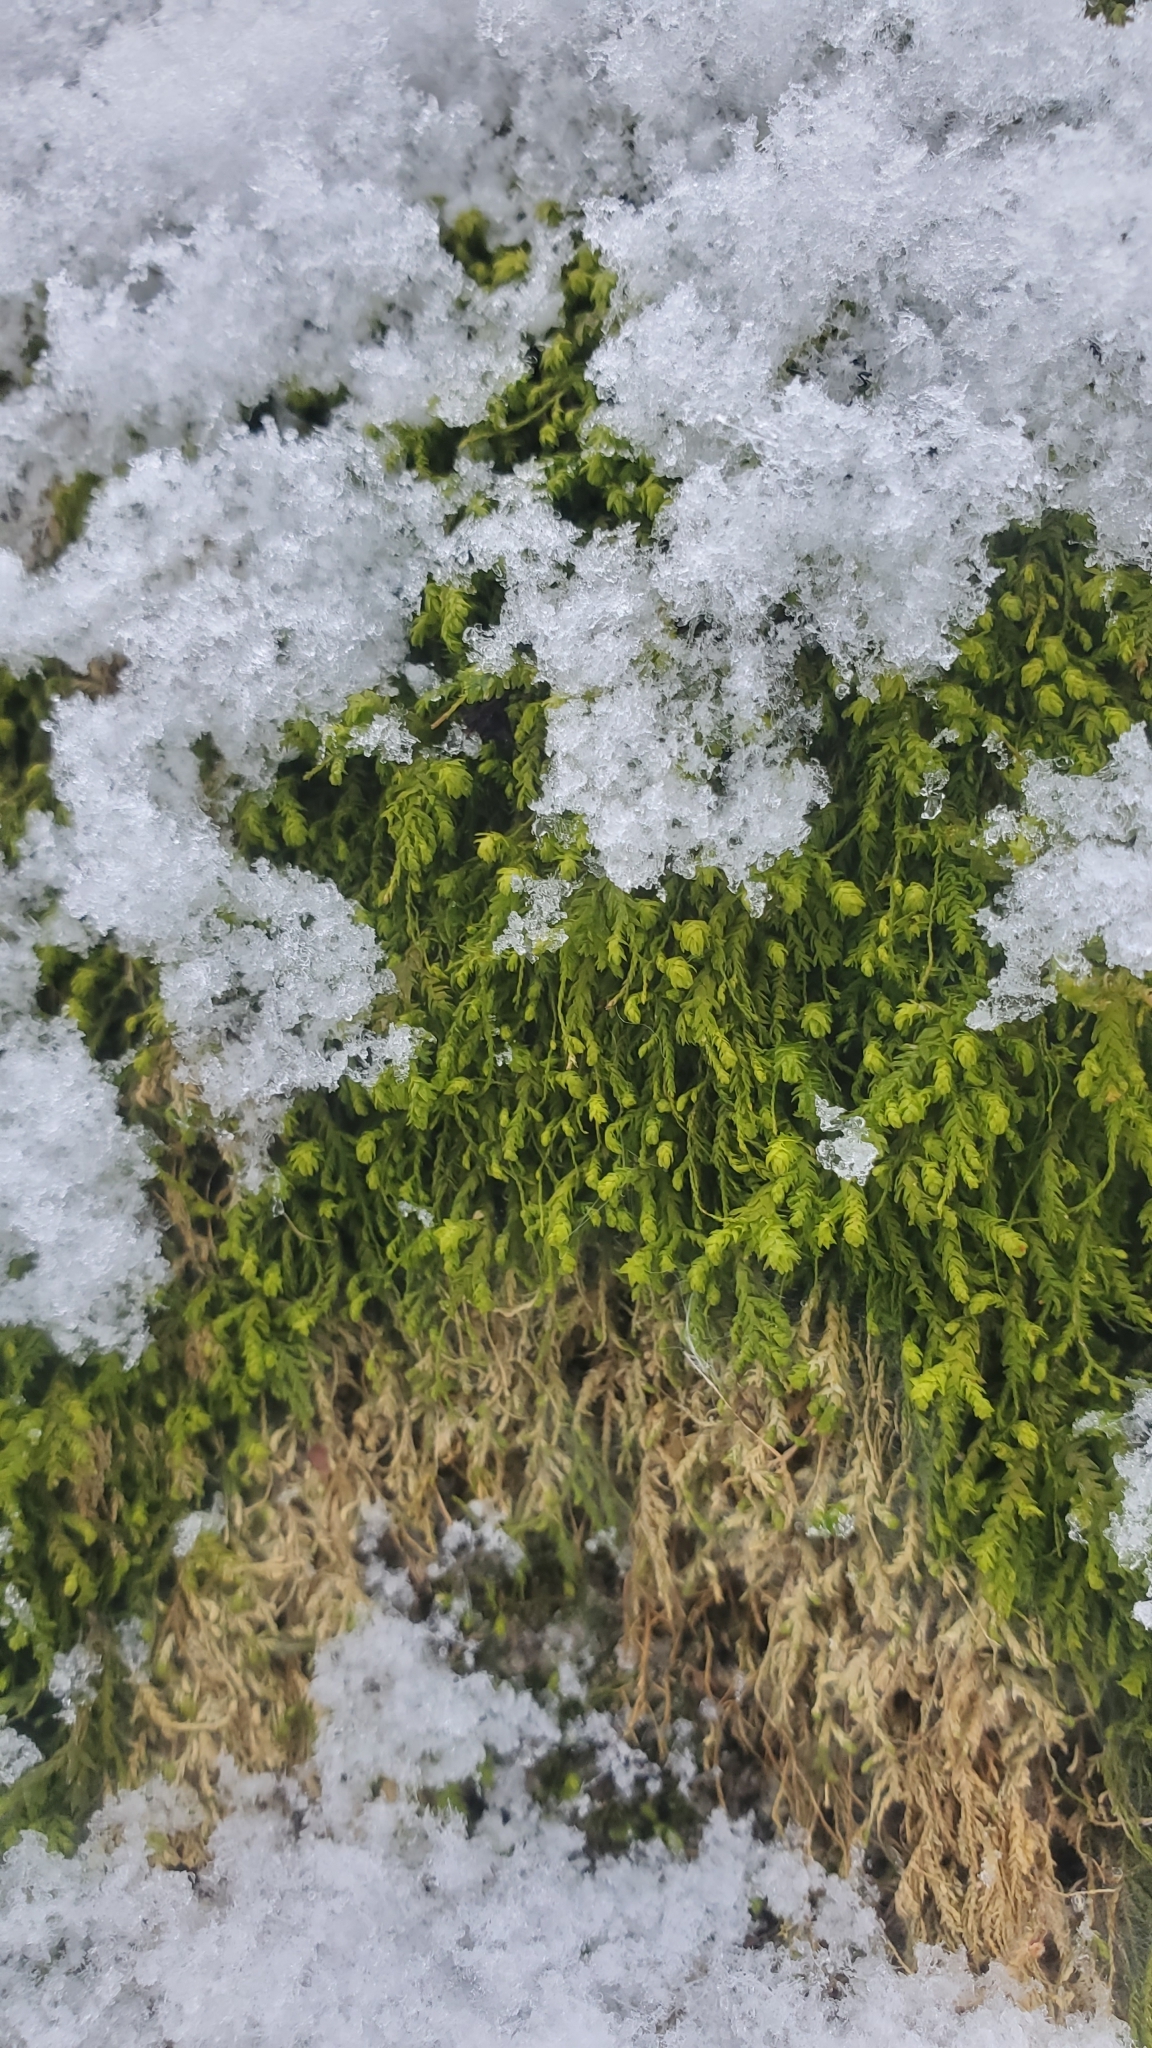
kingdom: Plantae
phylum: Bryophyta
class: Bryopsida
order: Hypnales
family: Neckeraceae
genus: Pseudanomodon
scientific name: Pseudanomodon attenuatus
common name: Tree-skirt moss
